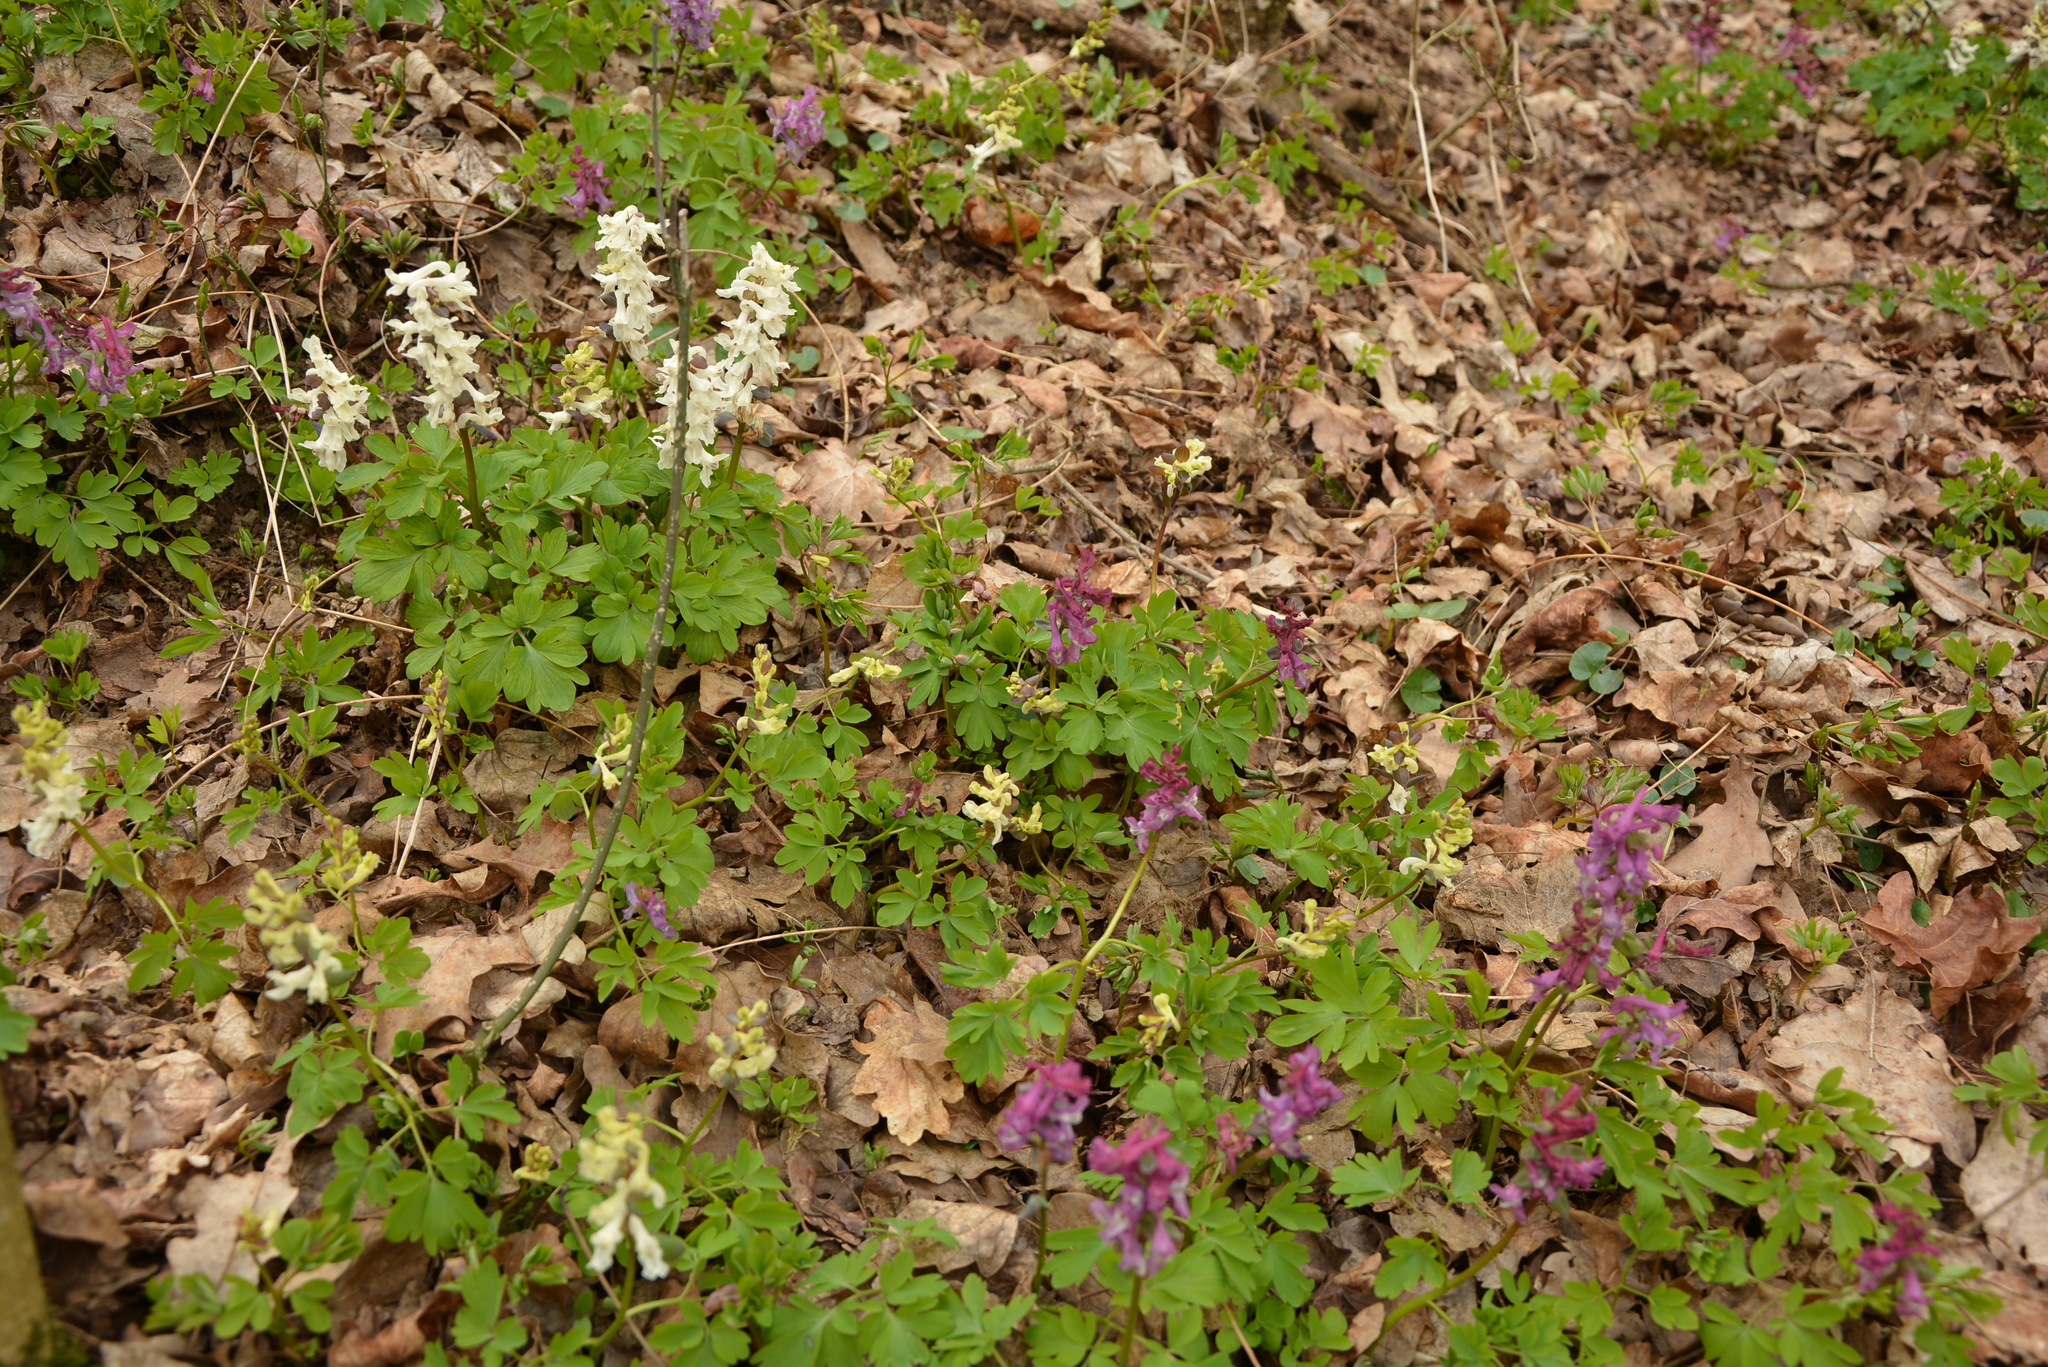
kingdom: Plantae
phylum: Tracheophyta
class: Magnoliopsida
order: Ranunculales
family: Papaveraceae
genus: Corydalis
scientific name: Corydalis cava
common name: Hollowroot
